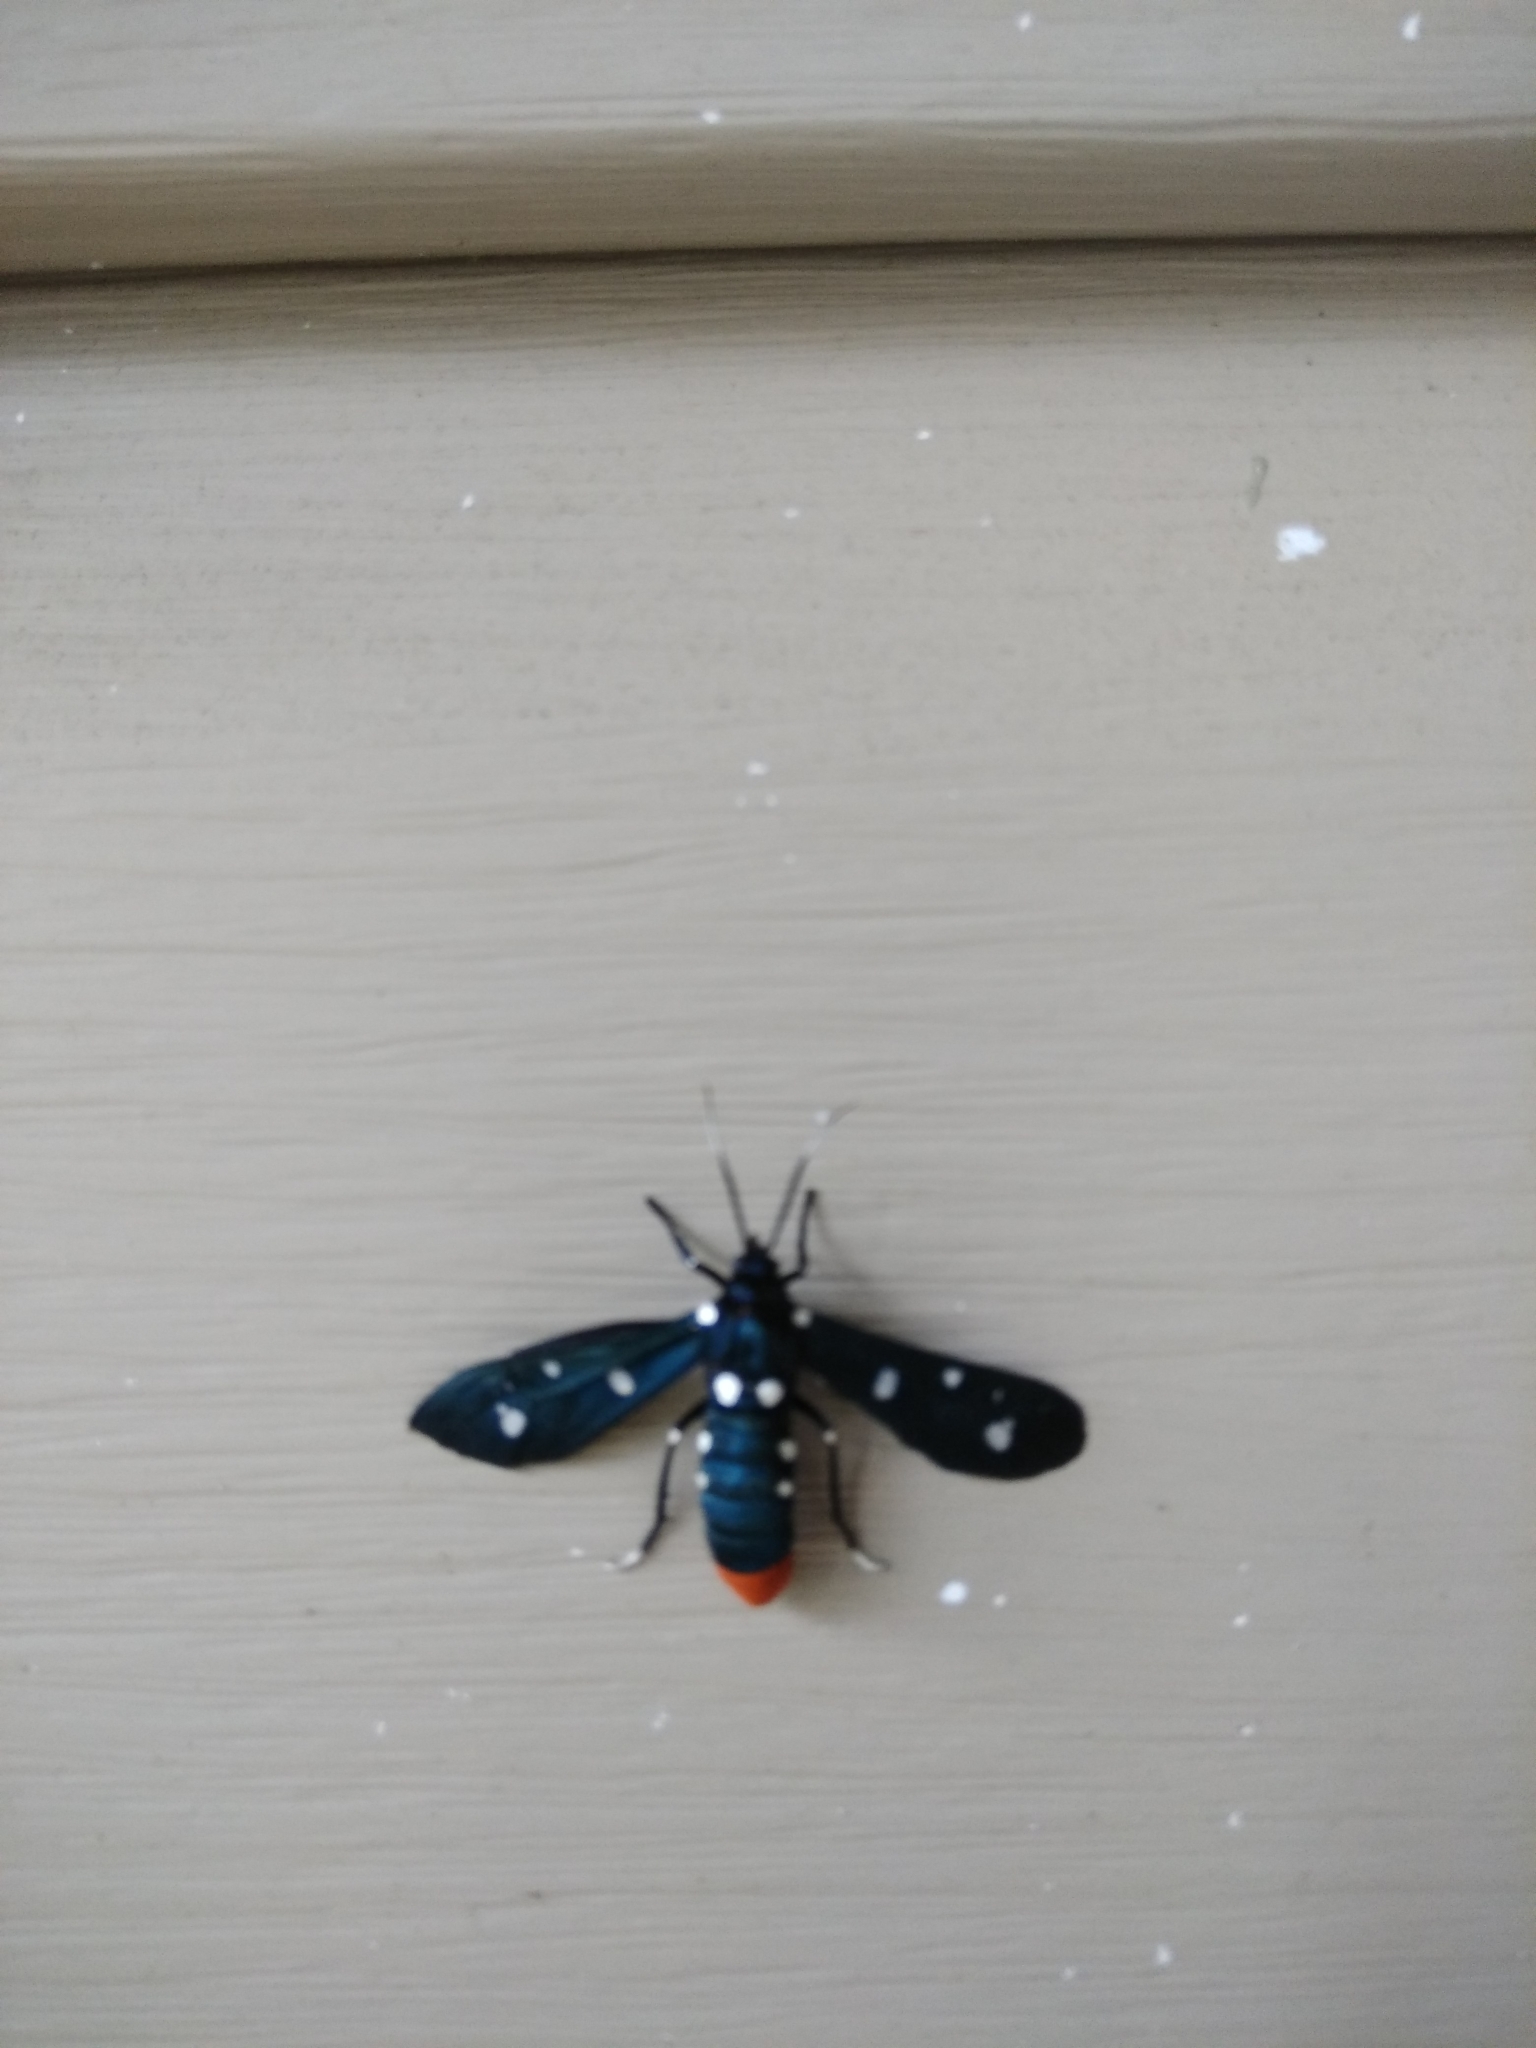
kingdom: Animalia
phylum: Arthropoda
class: Insecta
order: Lepidoptera
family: Erebidae
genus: Syntomeida
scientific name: Syntomeida epilais
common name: Polka-dot wasp moth
